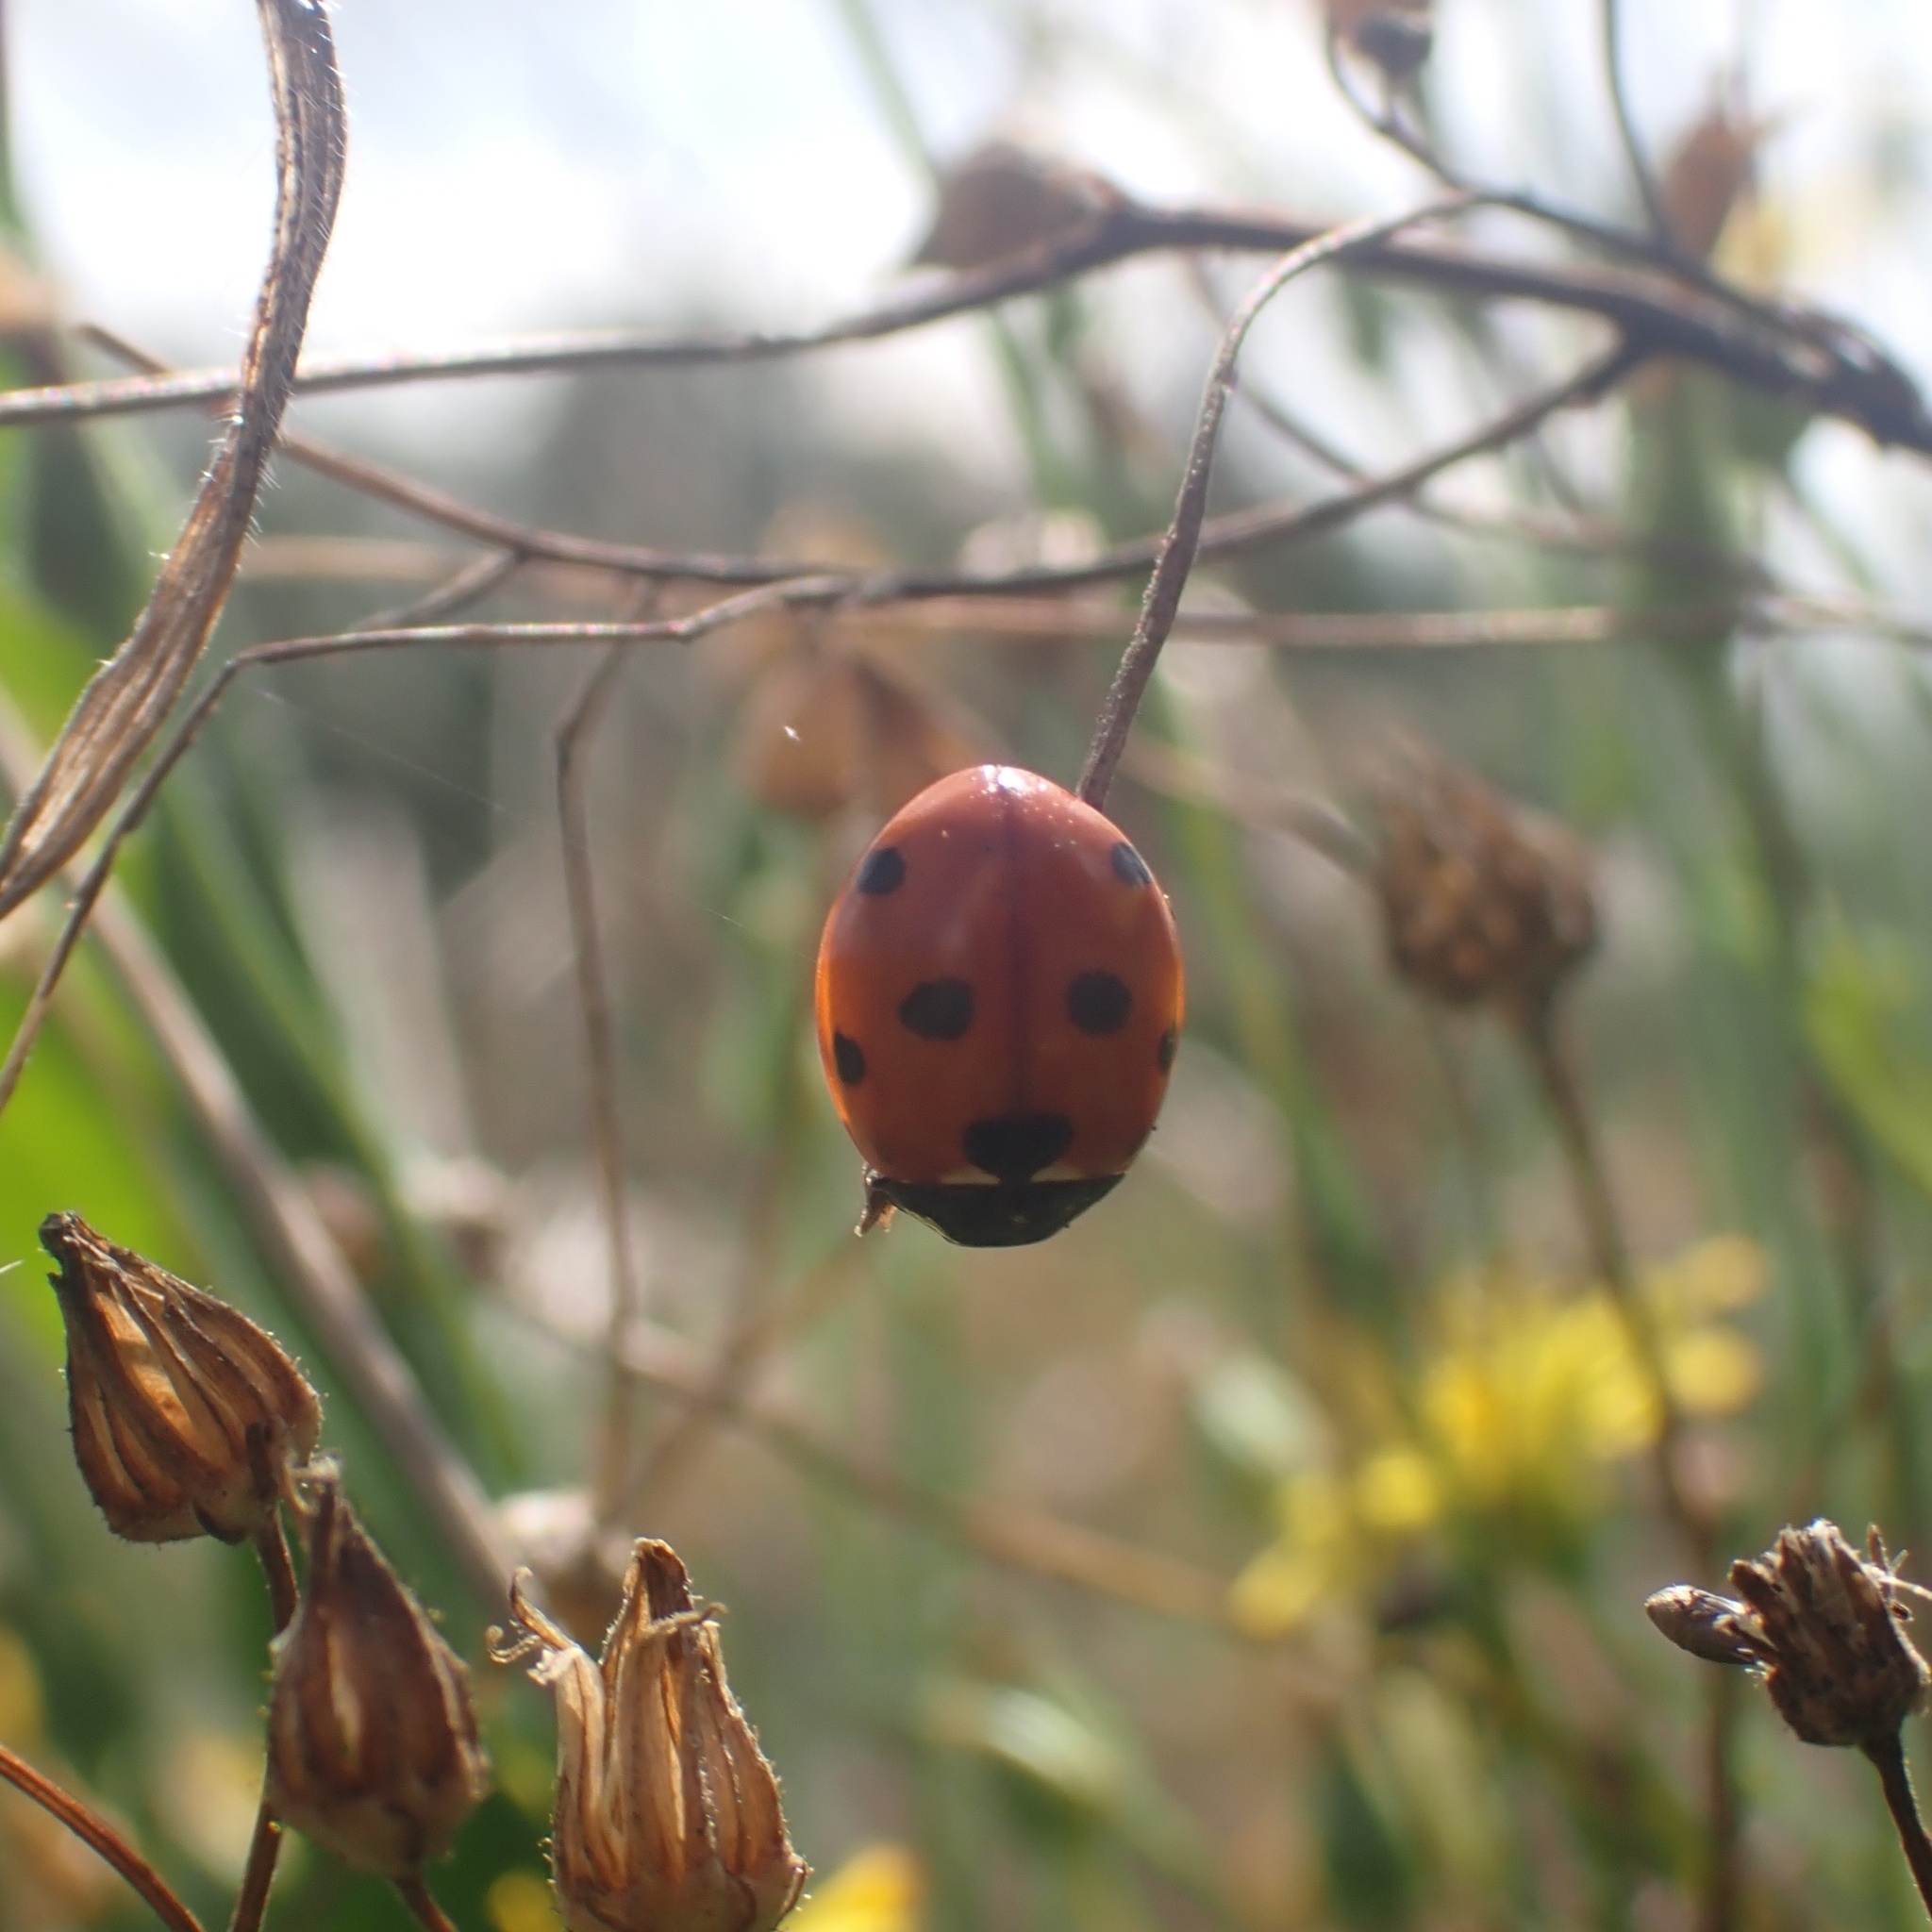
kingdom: Animalia
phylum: Arthropoda
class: Insecta
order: Coleoptera
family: Coccinellidae
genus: Coccinella
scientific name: Coccinella septempunctata
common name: Sevenspotted lady beetle
